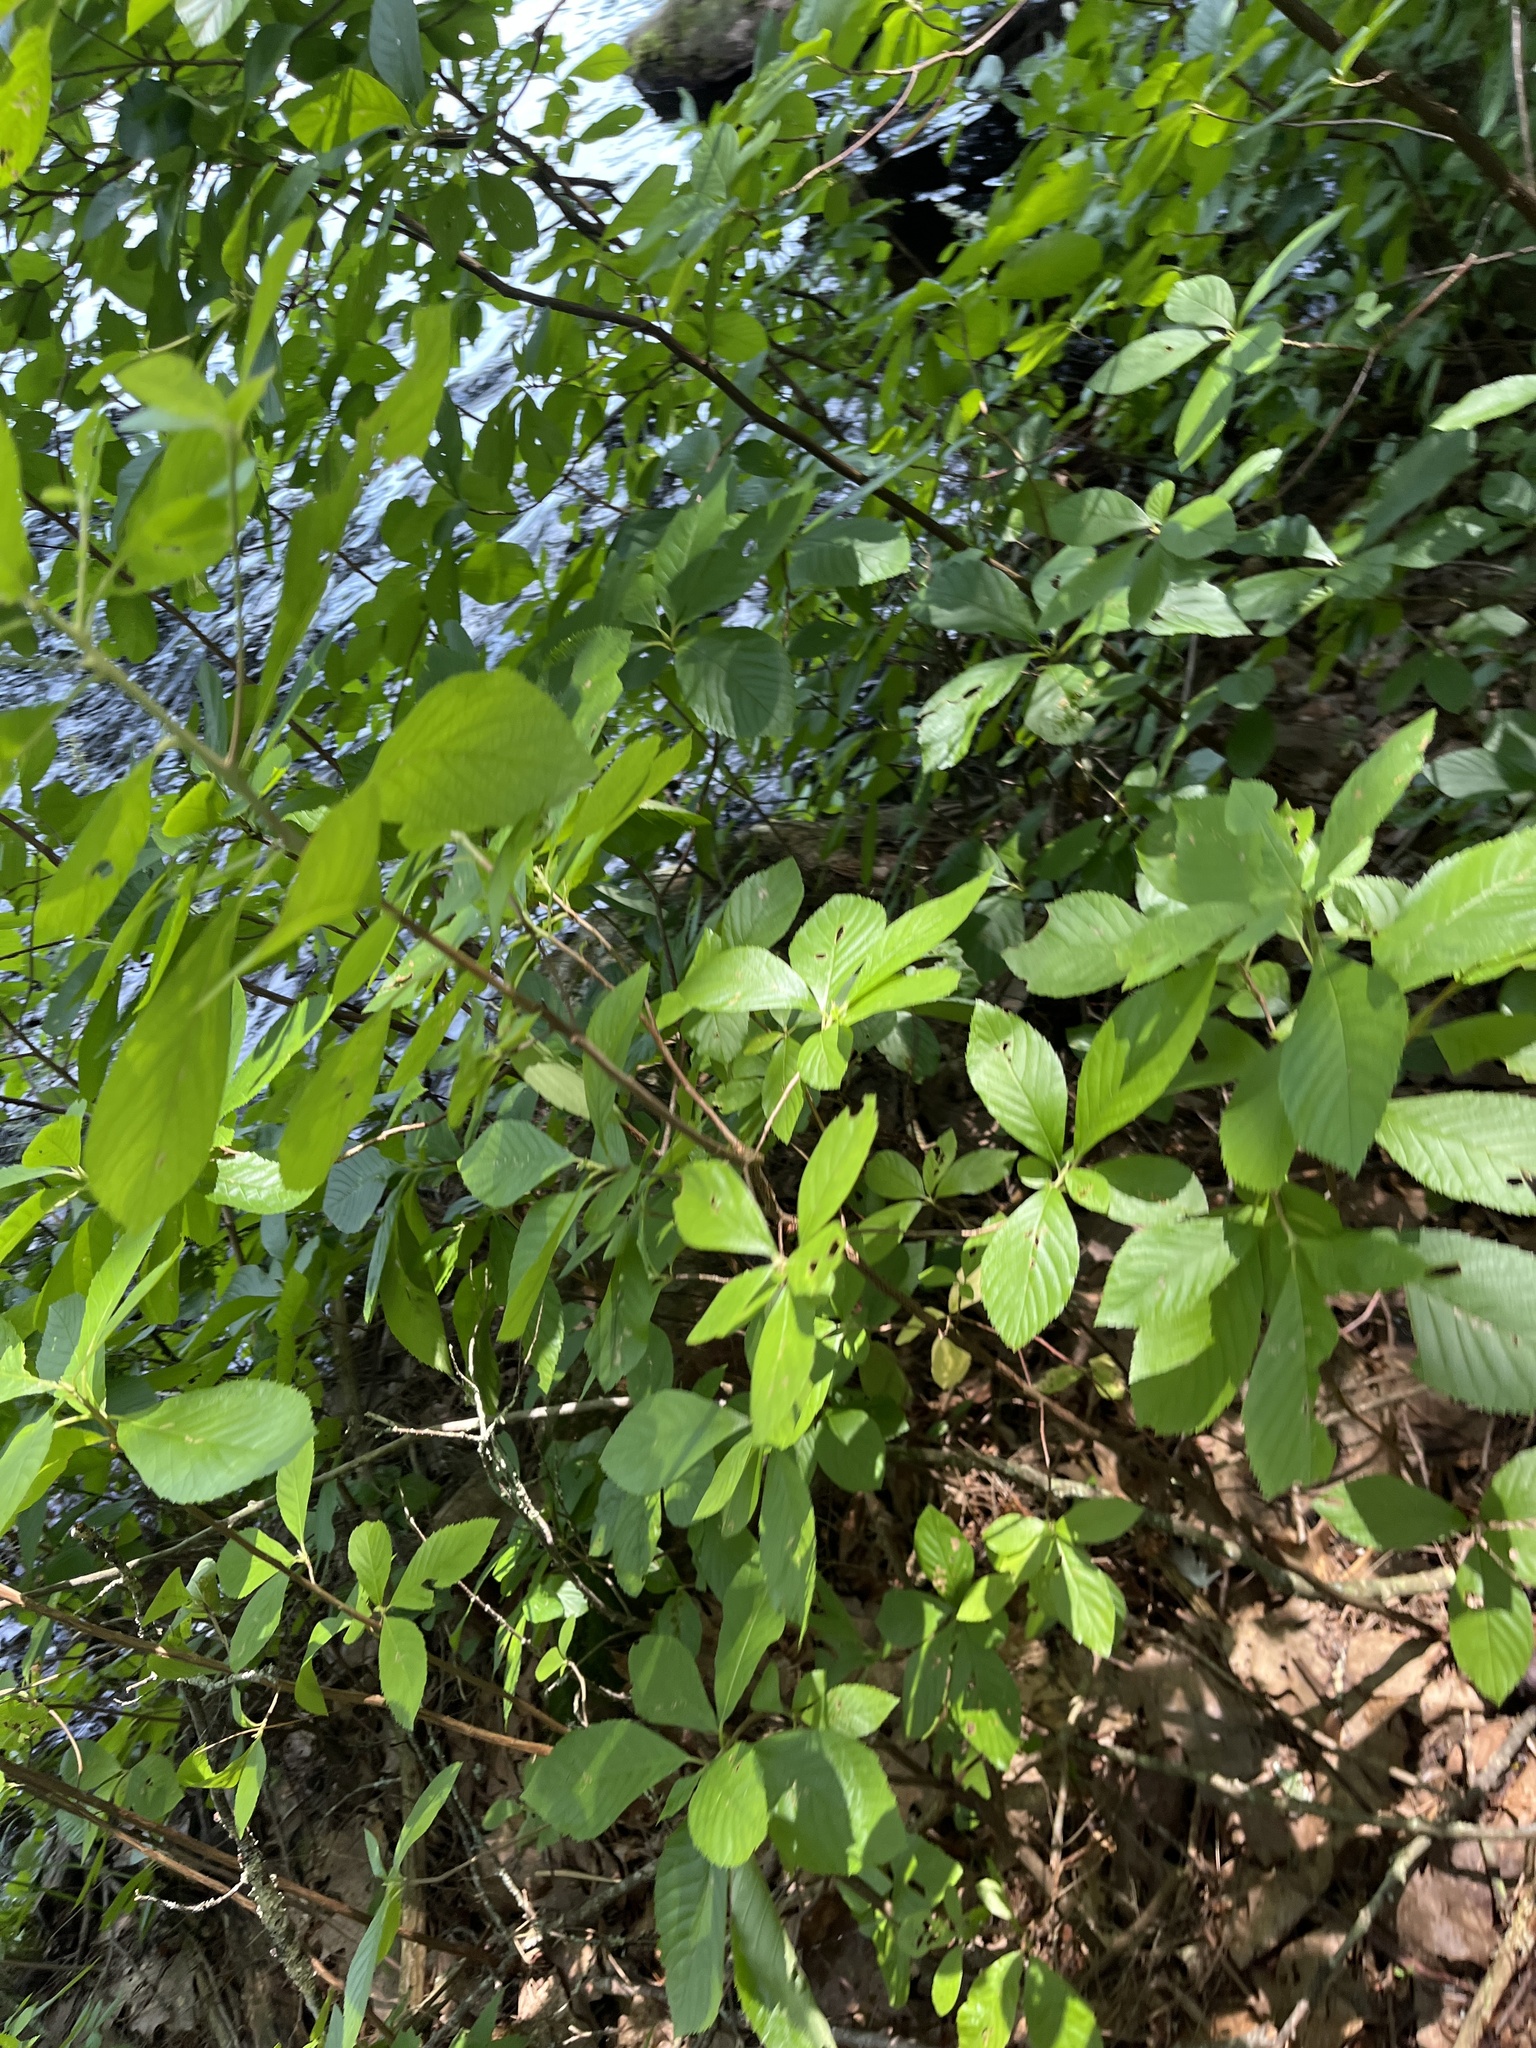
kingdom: Plantae
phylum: Tracheophyta
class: Magnoliopsida
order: Ericales
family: Clethraceae
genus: Clethra
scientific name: Clethra alnifolia
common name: Sweet pepperbush
